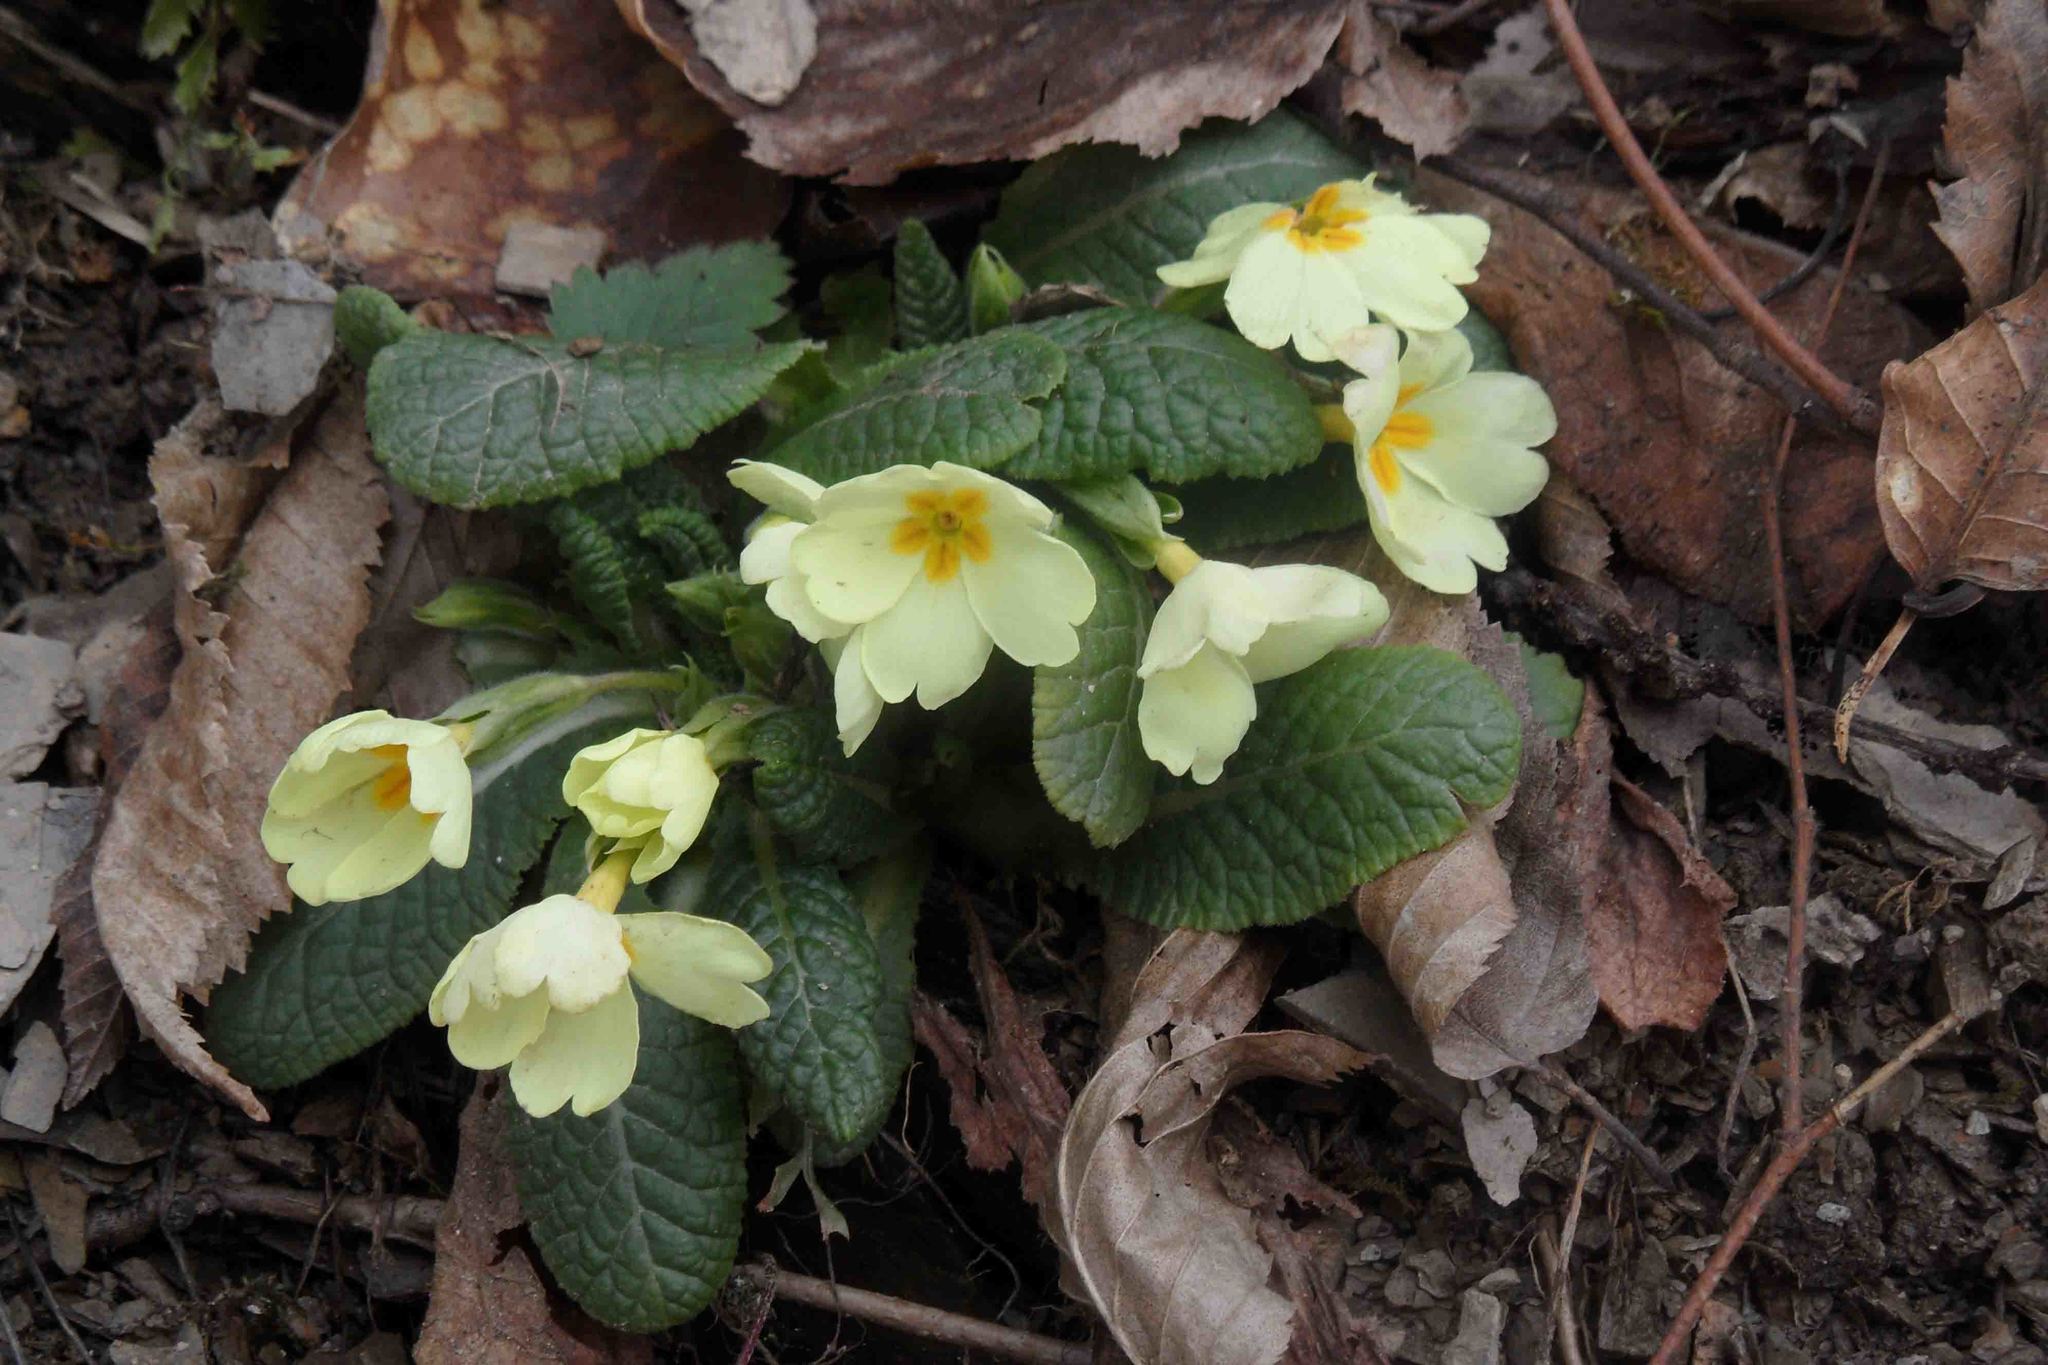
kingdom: Plantae
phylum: Tracheophyta
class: Magnoliopsida
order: Ericales
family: Primulaceae
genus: Primula
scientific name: Primula vulgaris
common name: Primrose
